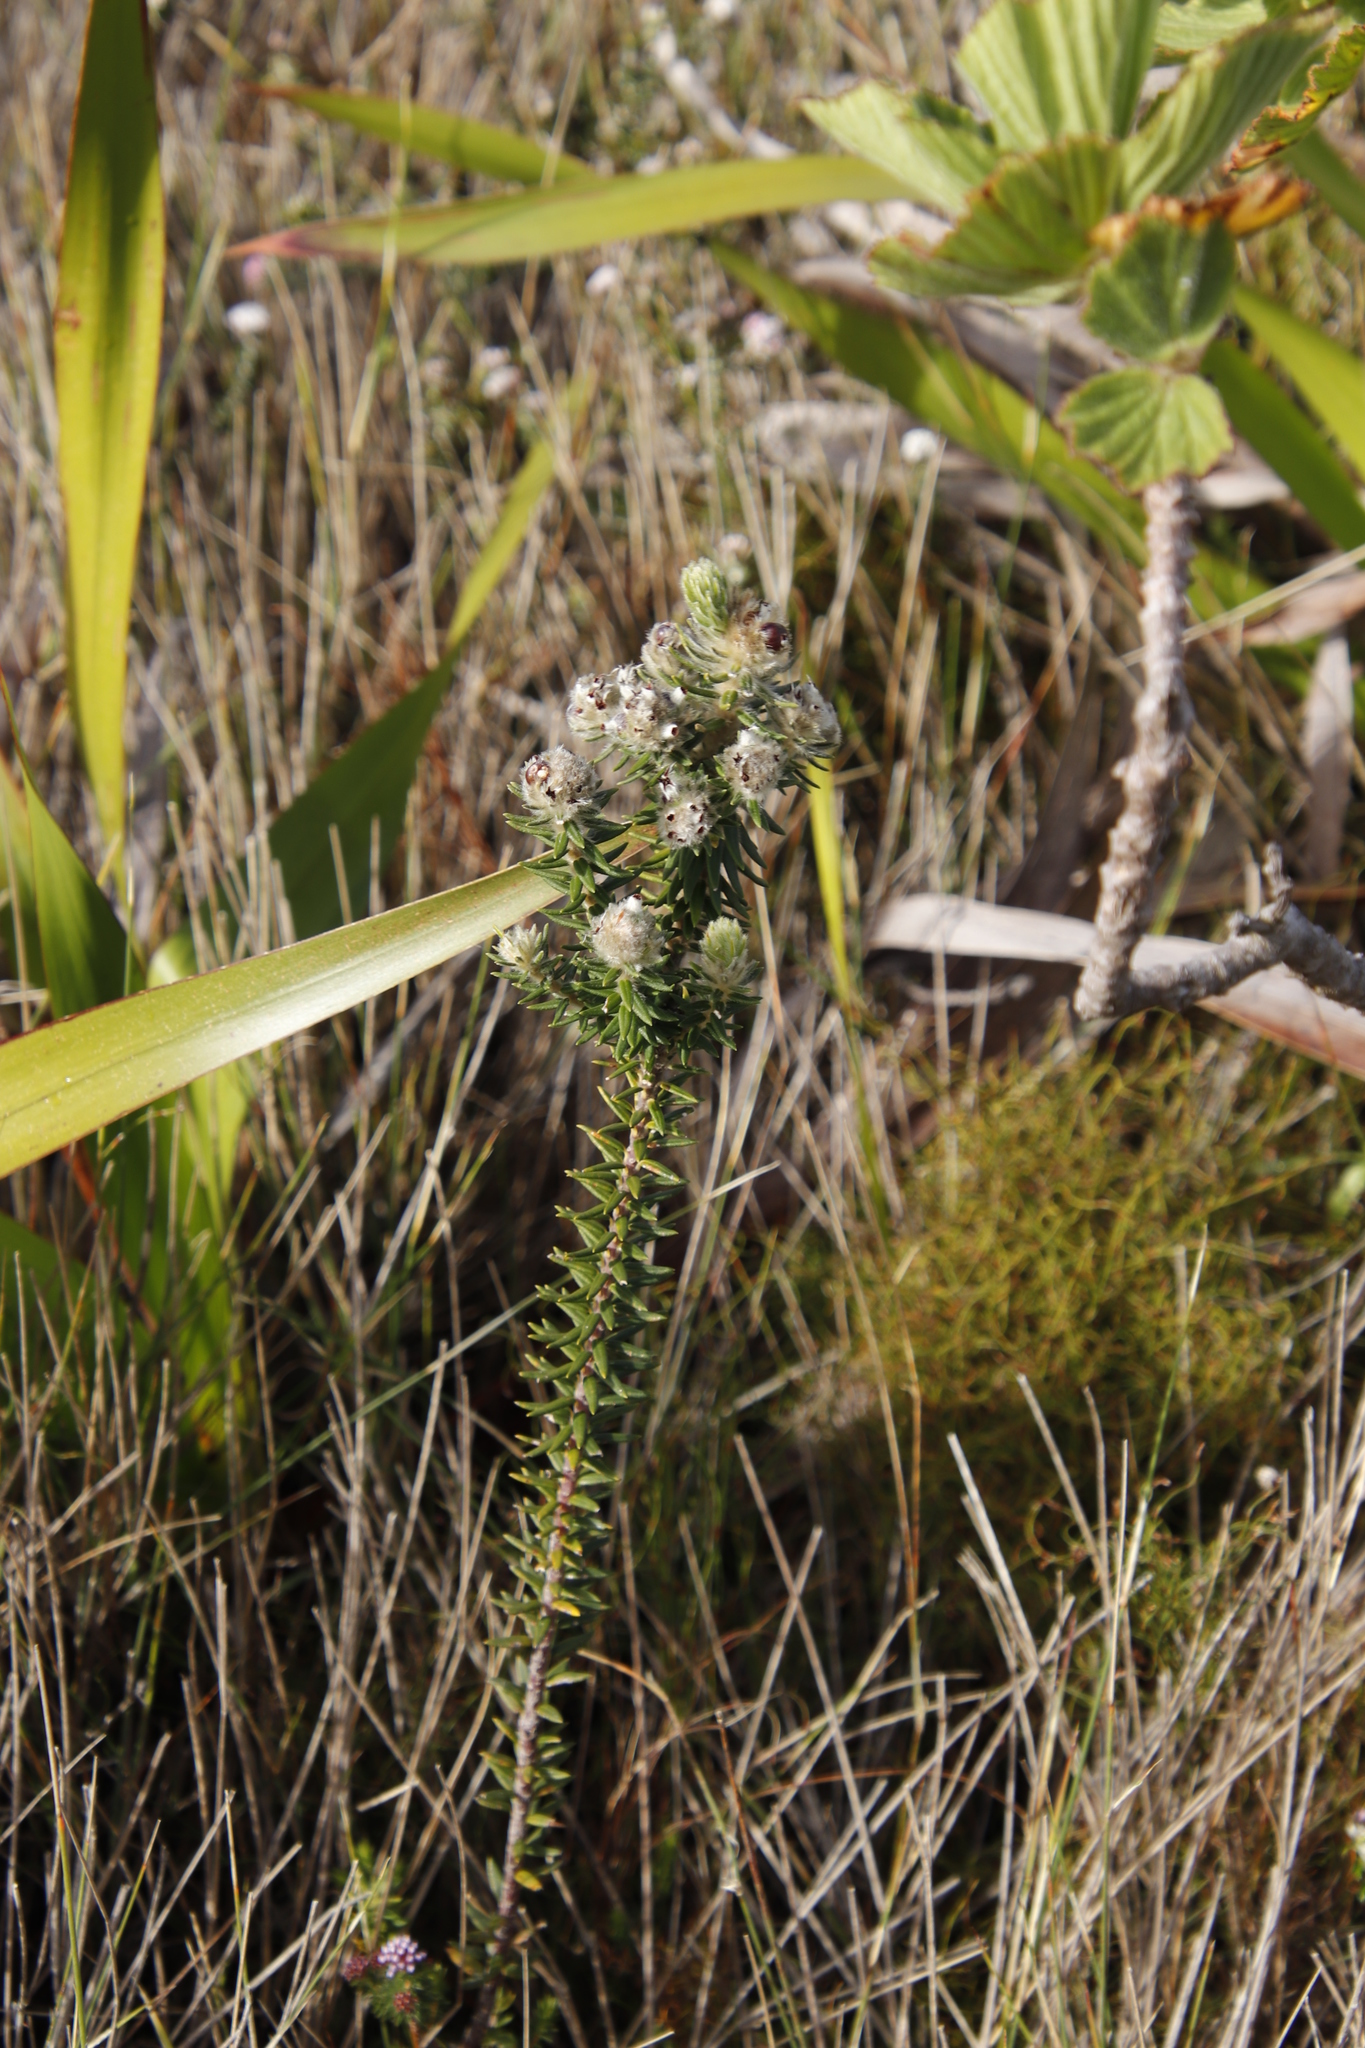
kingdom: Plantae
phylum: Tracheophyta
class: Magnoliopsida
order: Rosales
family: Rhamnaceae
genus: Phylica
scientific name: Phylica strigosa
